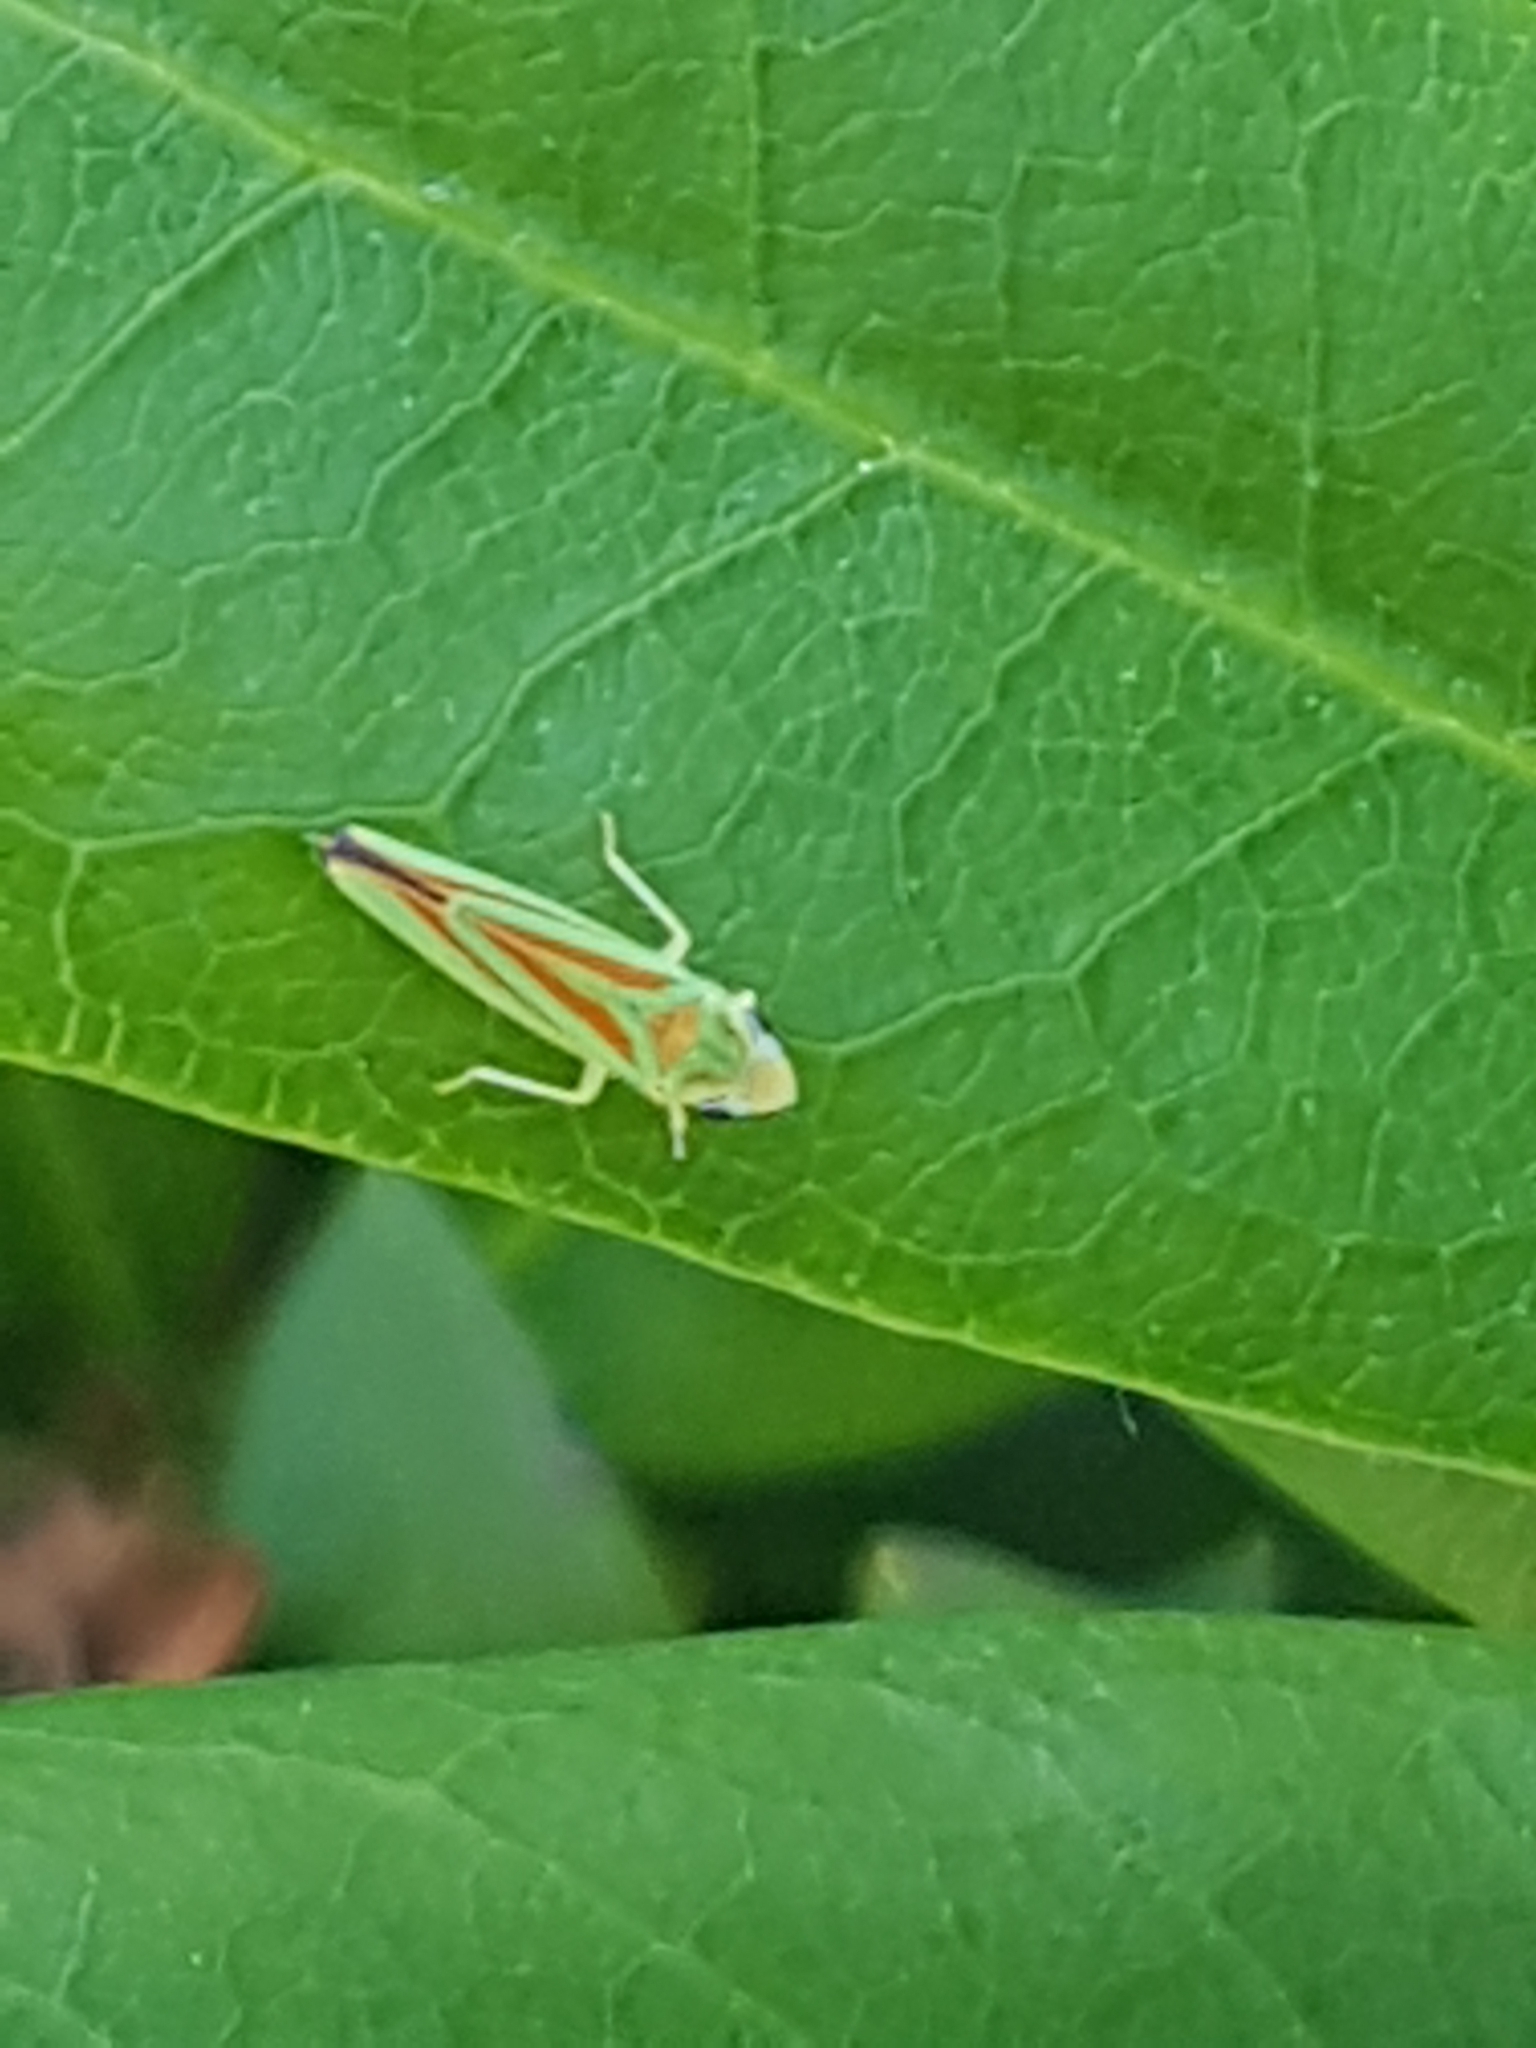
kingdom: Animalia
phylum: Arthropoda
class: Insecta
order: Hemiptera
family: Cicadellidae
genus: Graphocephala
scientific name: Graphocephala fennahi
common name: Rhododendron leafhopper
